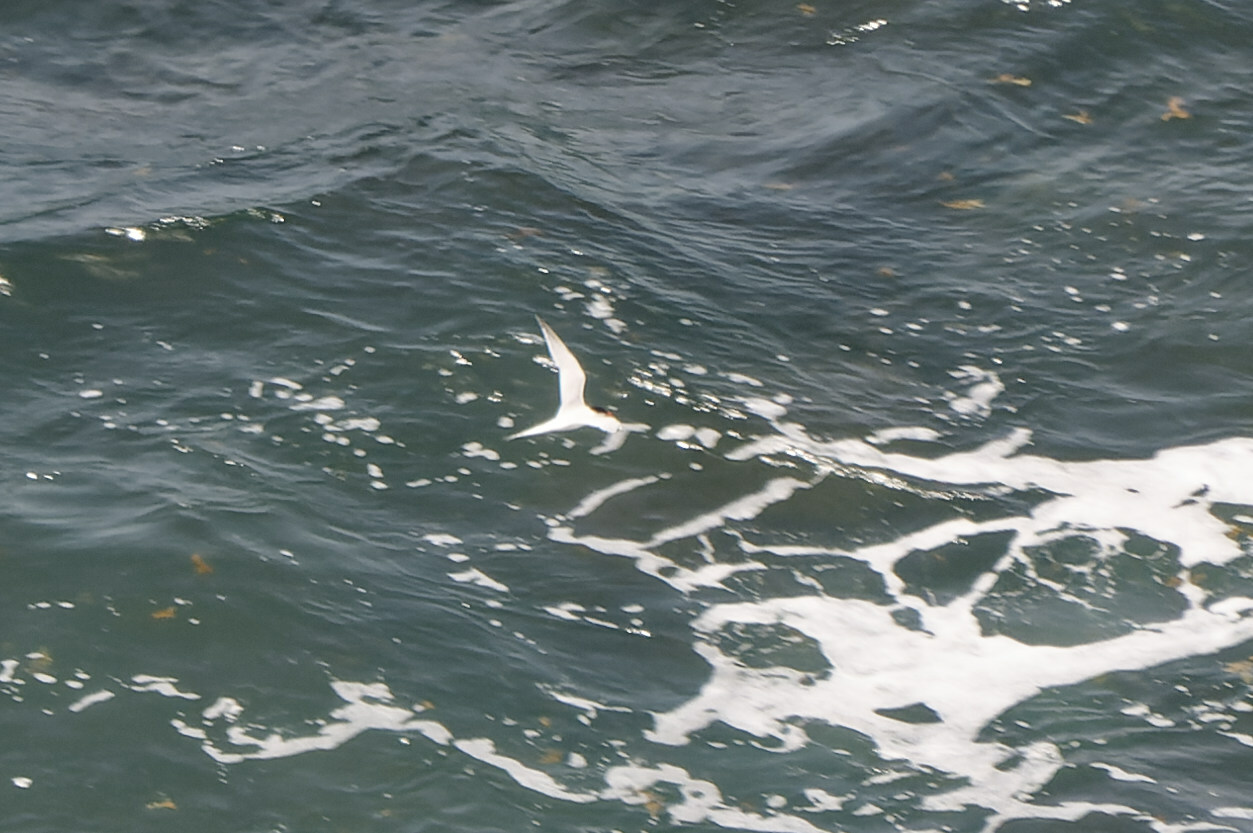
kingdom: Animalia
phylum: Chordata
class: Aves
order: Charadriiformes
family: Laridae
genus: Sterna
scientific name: Sterna dougallii
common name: Roseate tern
